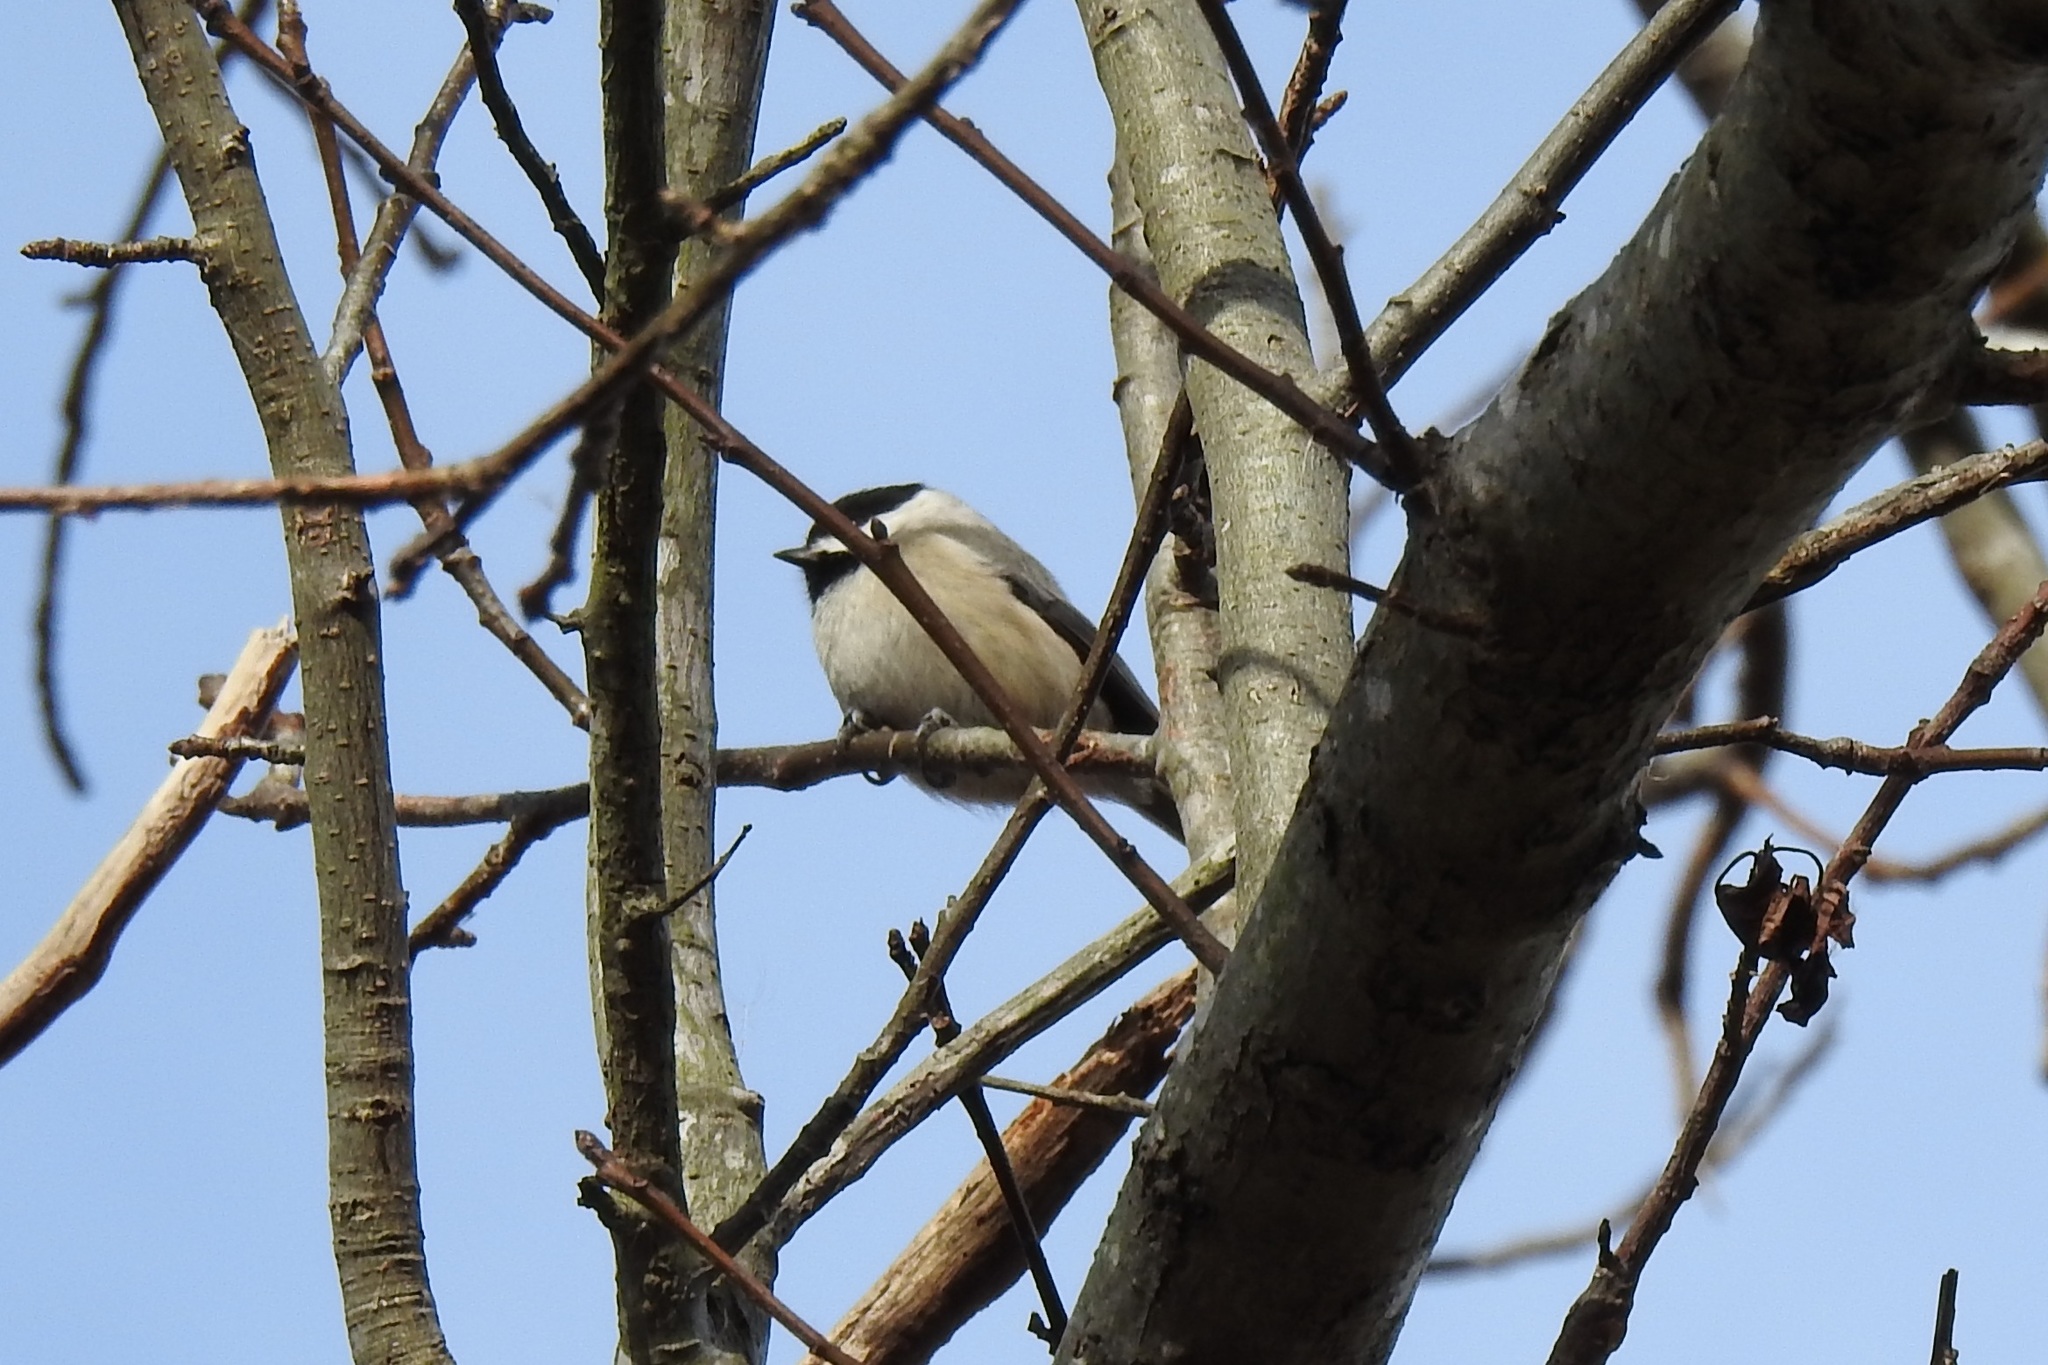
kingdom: Animalia
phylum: Chordata
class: Aves
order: Passeriformes
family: Paridae
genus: Poecile
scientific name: Poecile carolinensis
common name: Carolina chickadee
